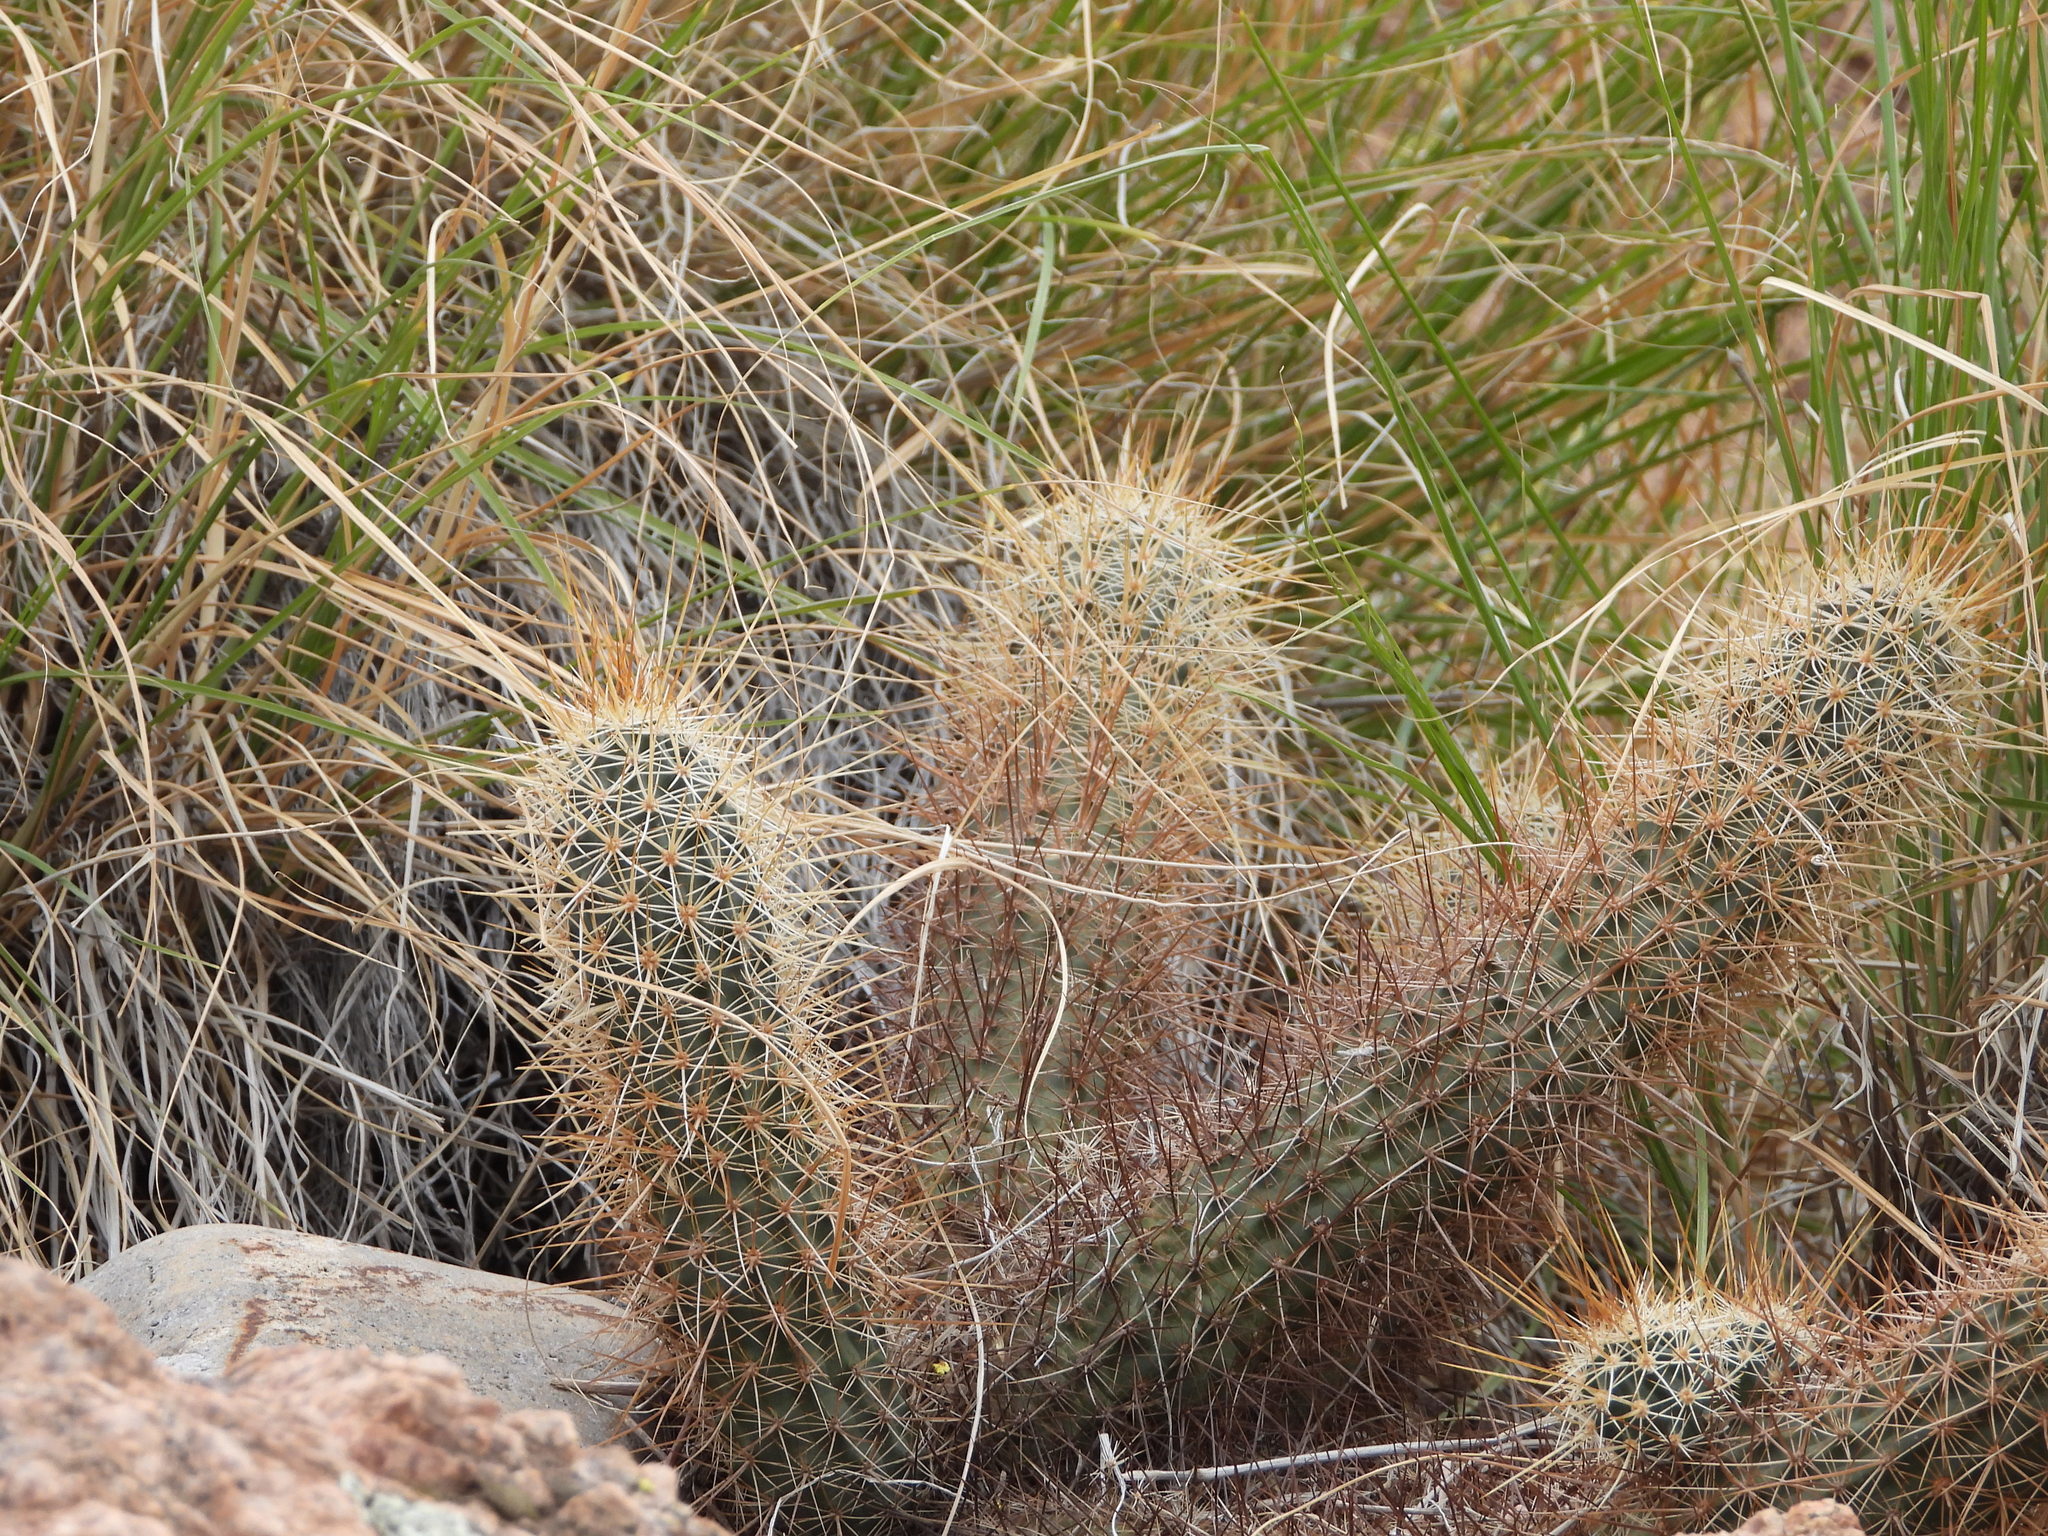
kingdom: Plantae
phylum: Tracheophyta
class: Magnoliopsida
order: Caryophyllales
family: Cactaceae
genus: Echinocereus
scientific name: Echinocereus engelmannii
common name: Engelmann's hedgehog cactus
